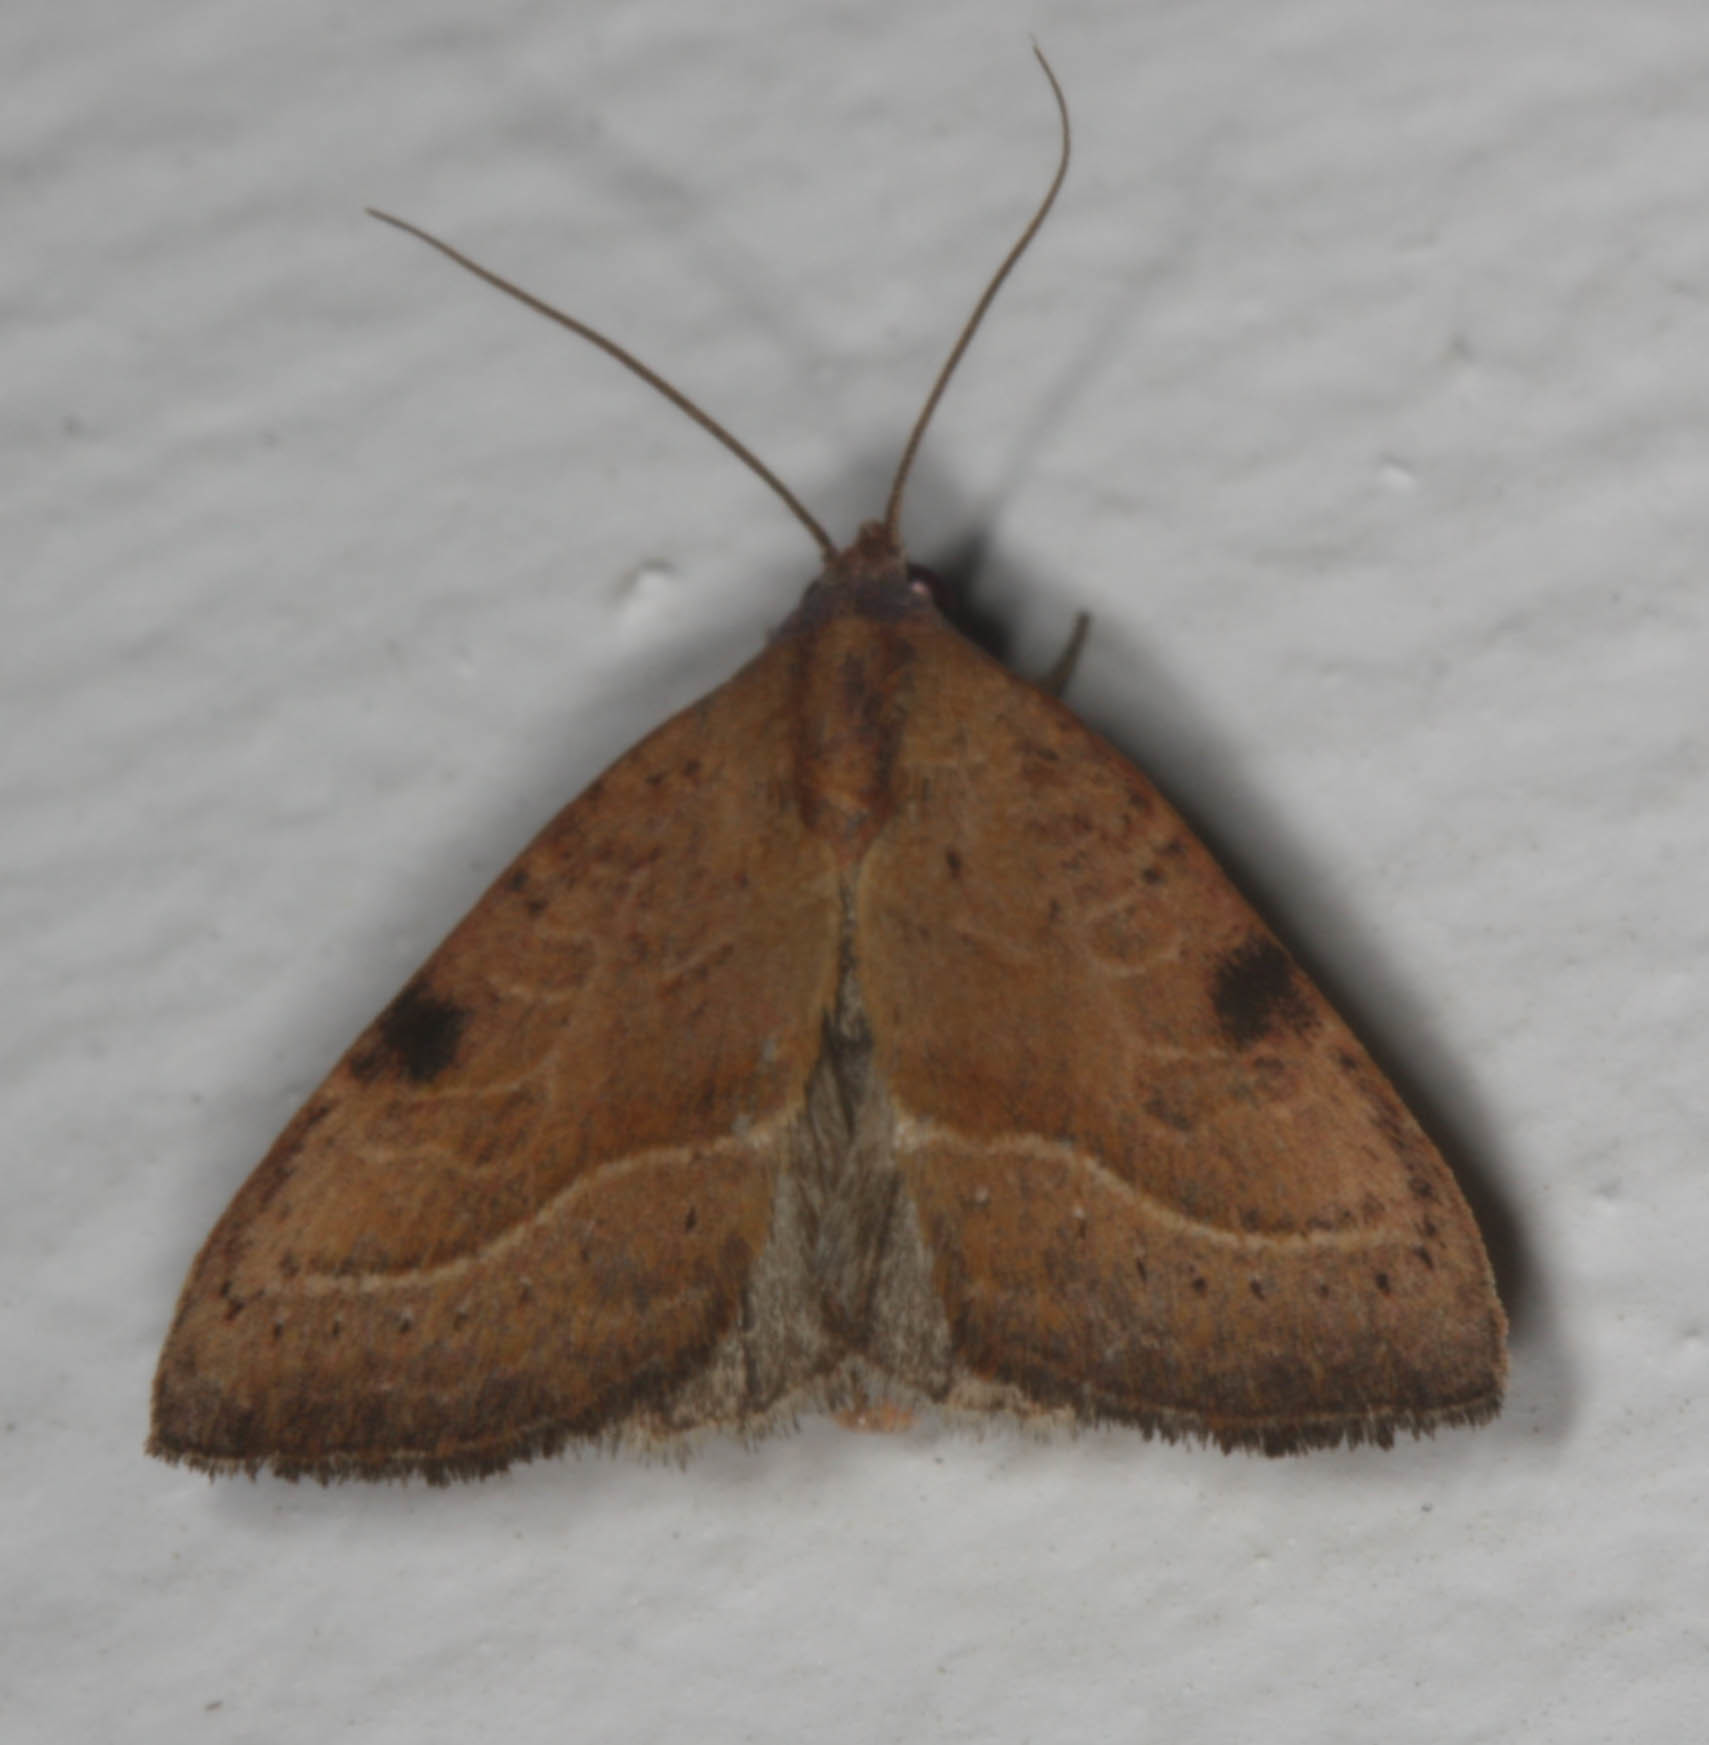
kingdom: Animalia
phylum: Arthropoda
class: Insecta
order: Lepidoptera
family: Noctuidae
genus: Galgula
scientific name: Galgula partita
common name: Wedgeling
